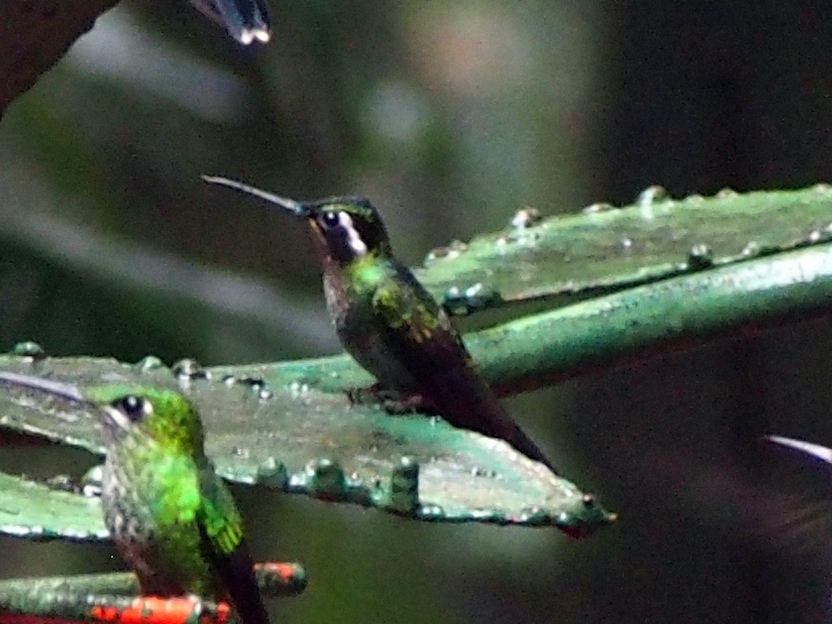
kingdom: Animalia
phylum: Chordata
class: Aves
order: Apodiformes
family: Trochilidae
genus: Lampornis
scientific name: Lampornis calolaemus
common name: Purple-throated mountain-gem
